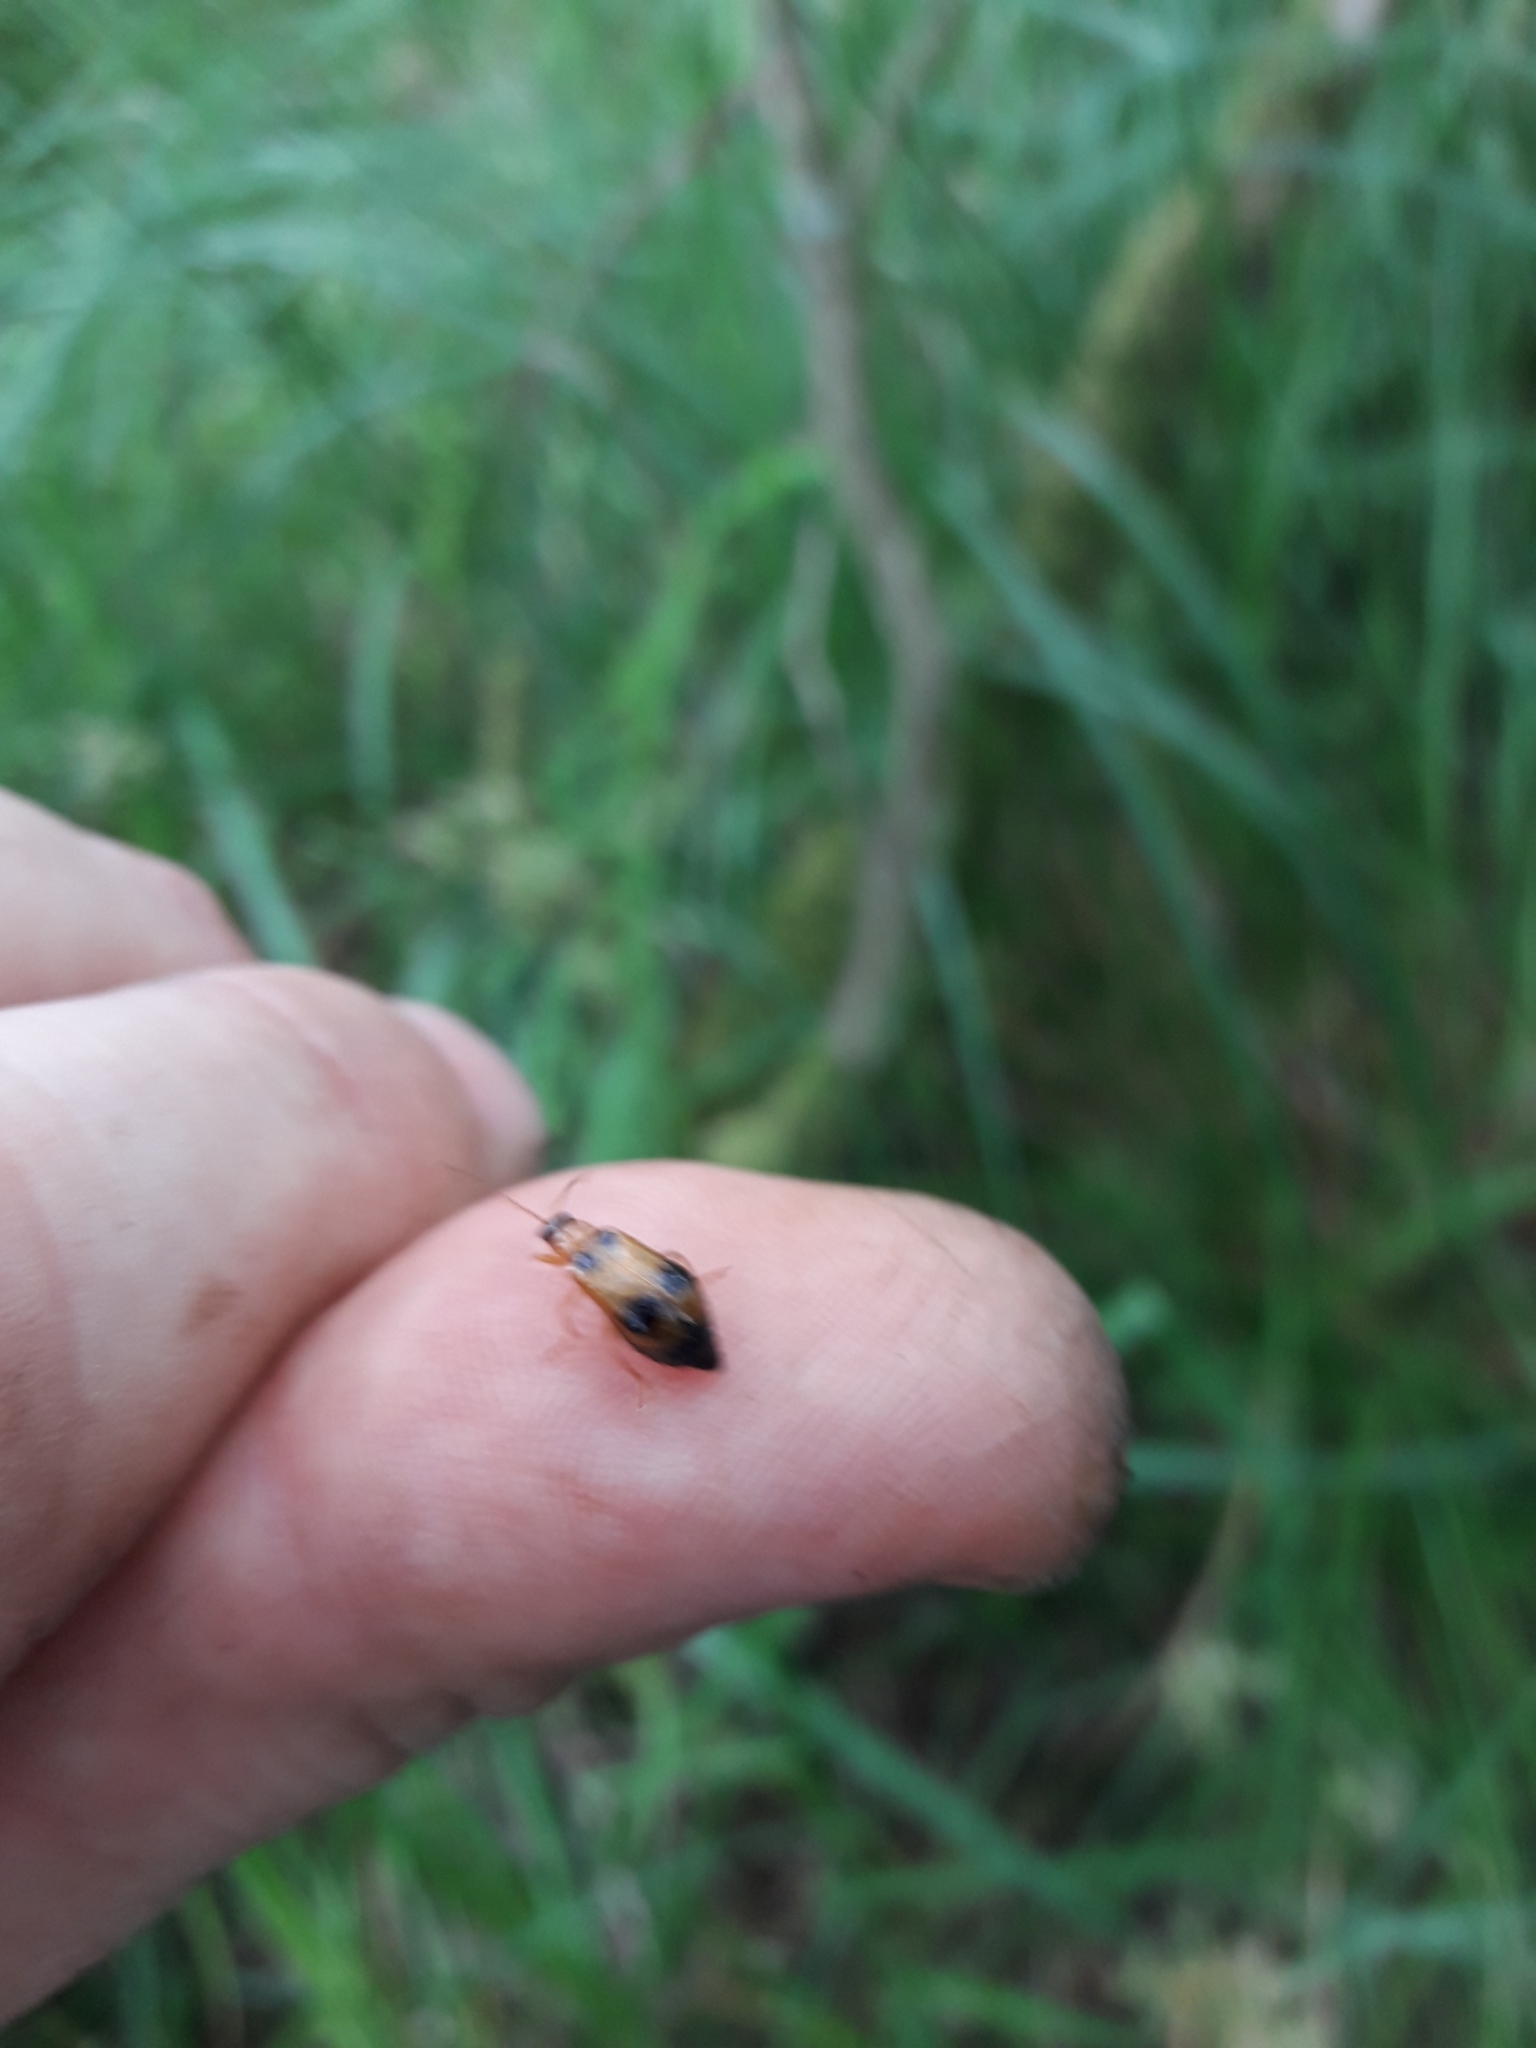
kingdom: Animalia
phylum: Arthropoda
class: Insecta
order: Coleoptera
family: Chrysomelidae
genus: Phyllobrotica
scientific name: Phyllobrotica quadrimaculata
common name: Skullcap leaf beetle
